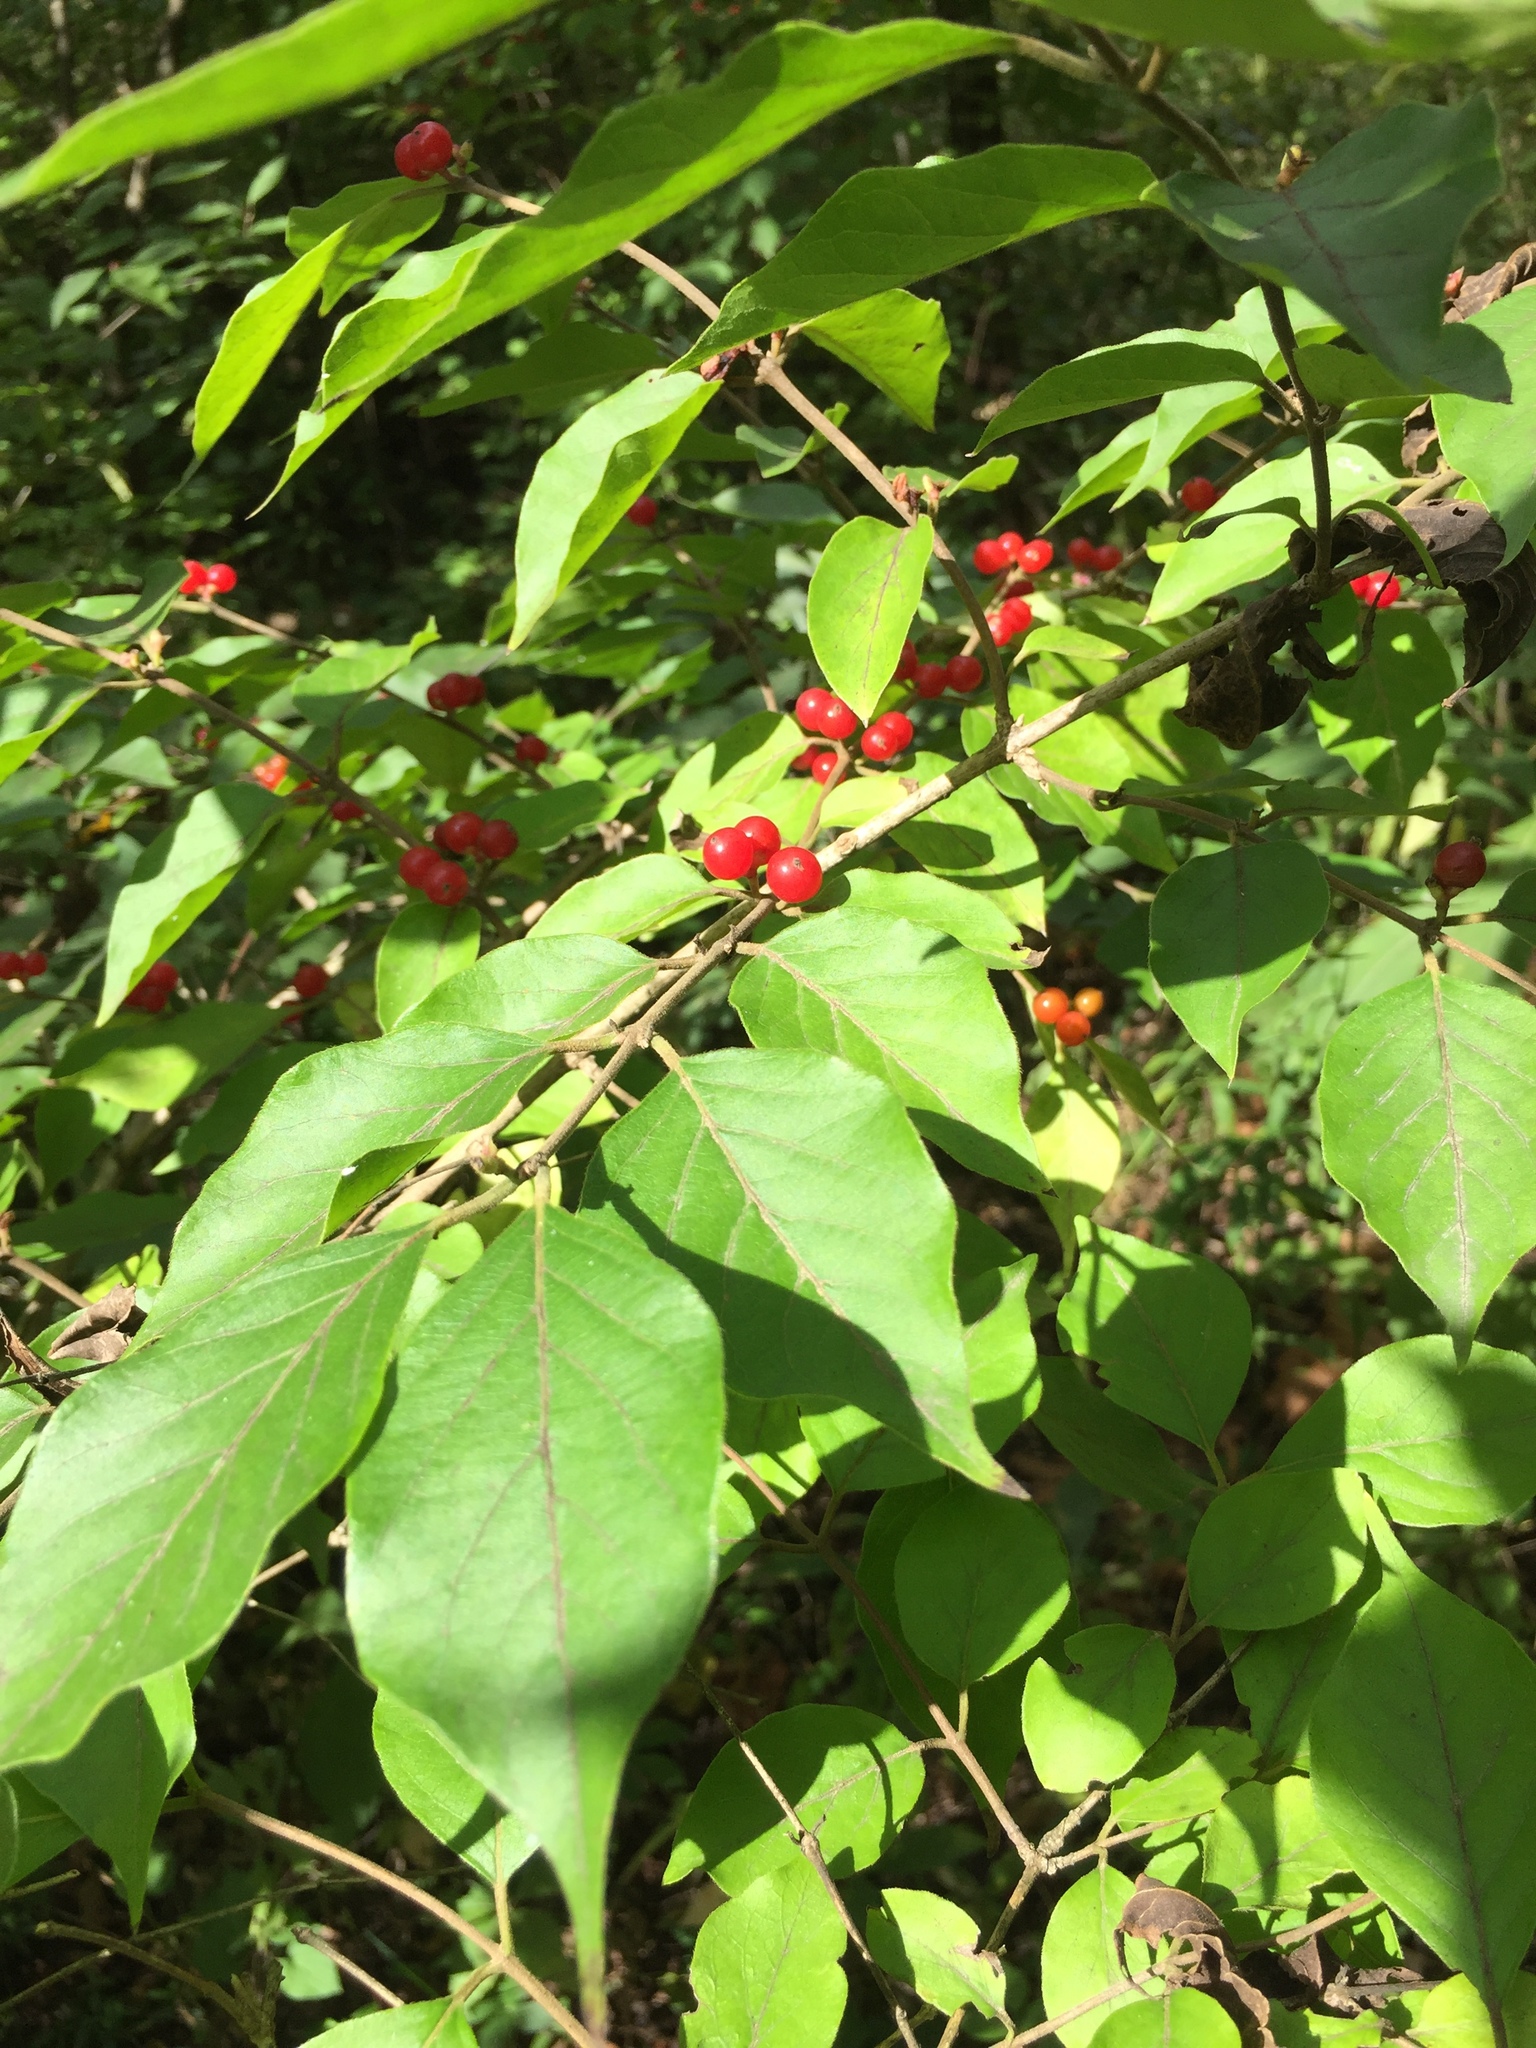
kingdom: Plantae
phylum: Tracheophyta
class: Magnoliopsida
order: Dipsacales
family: Caprifoliaceae
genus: Lonicera
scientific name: Lonicera maackii
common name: Amur honeysuckle
